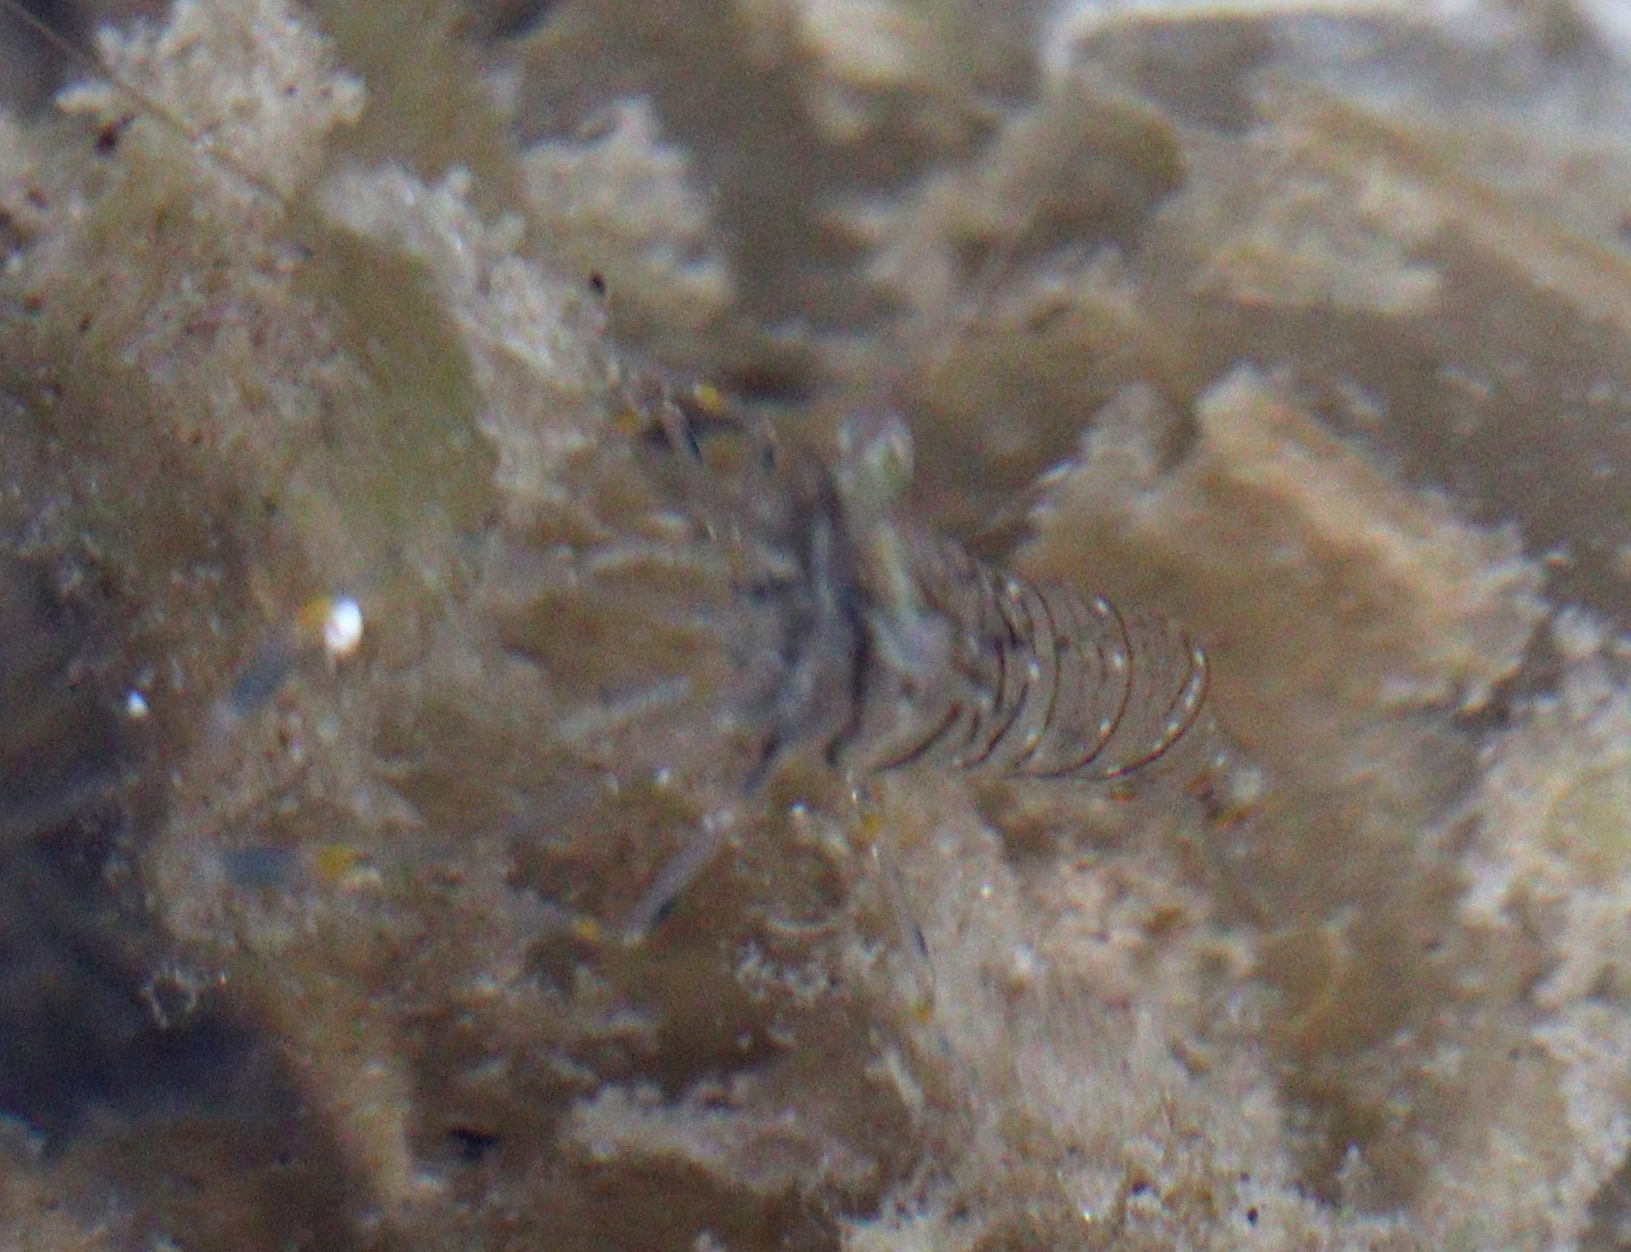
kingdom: Animalia
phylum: Arthropoda
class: Malacostraca
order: Decapoda
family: Palaemonidae
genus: Palaemon
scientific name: Palaemon elegans
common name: Grass prawm
